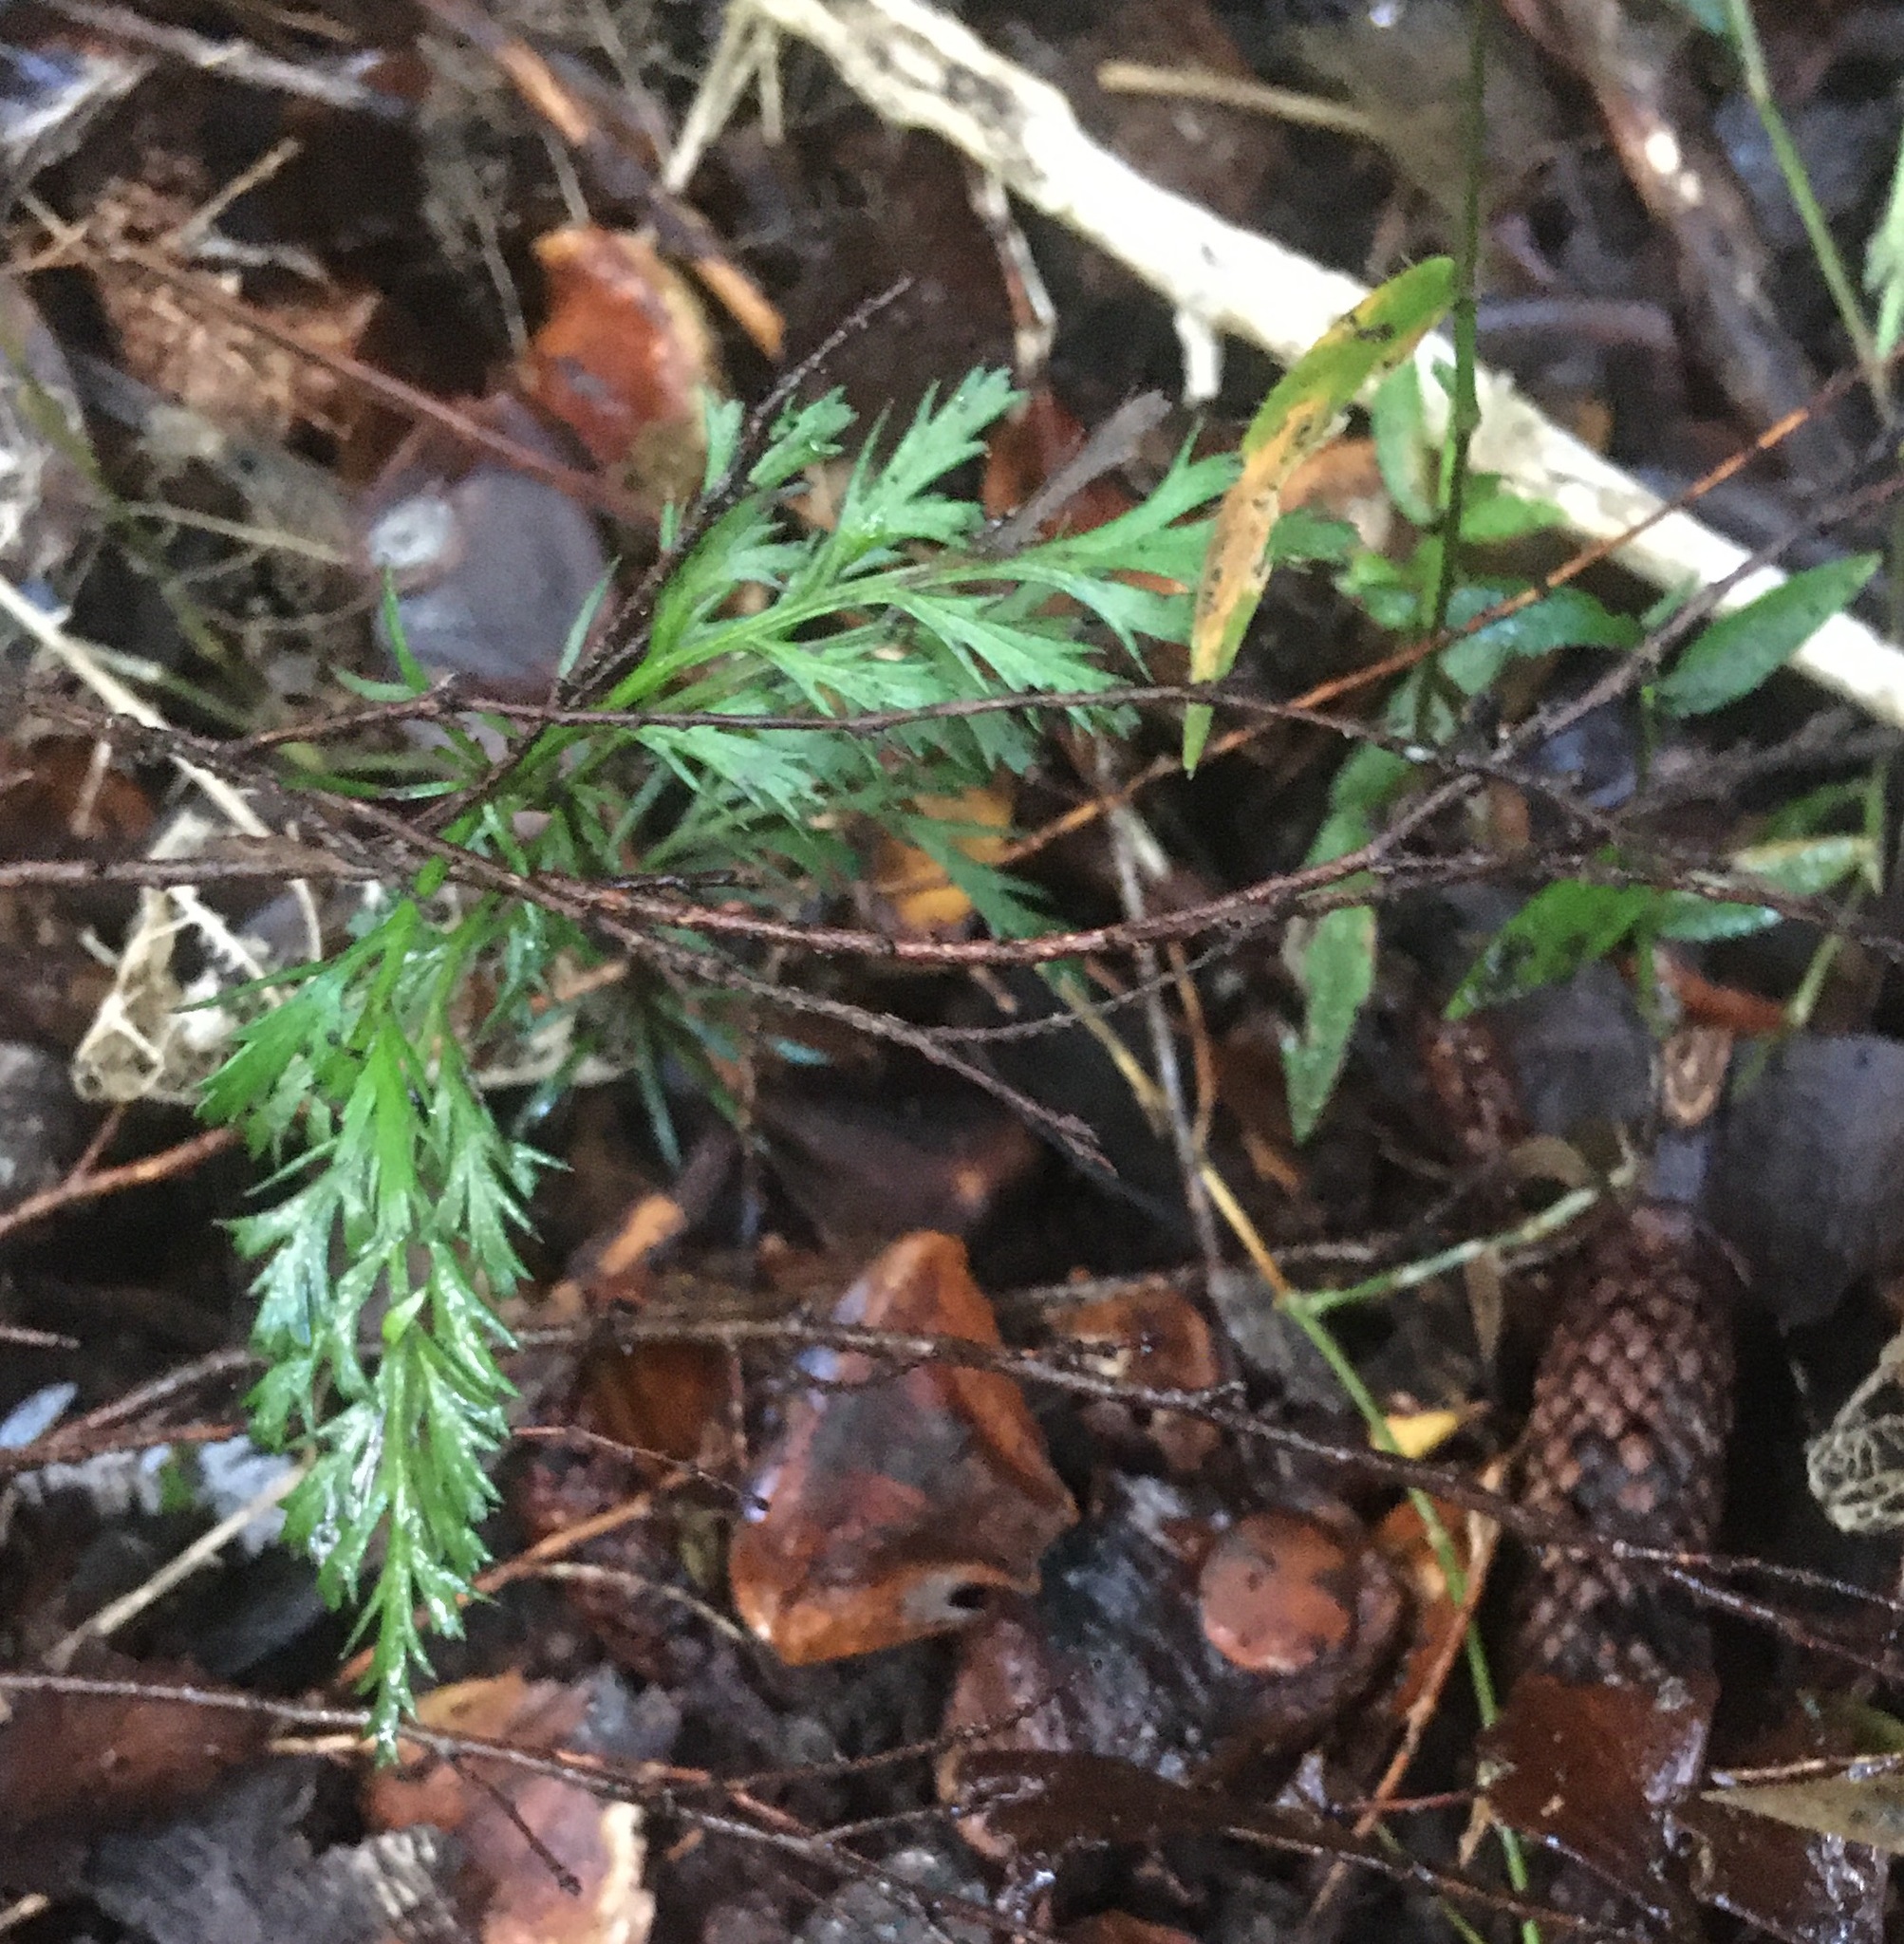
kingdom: Plantae
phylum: Tracheophyta
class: Pinopsida
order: Pinales
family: Phyllocladaceae
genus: Phyllocladus
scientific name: Phyllocladus trichomanoides
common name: Celery pine
